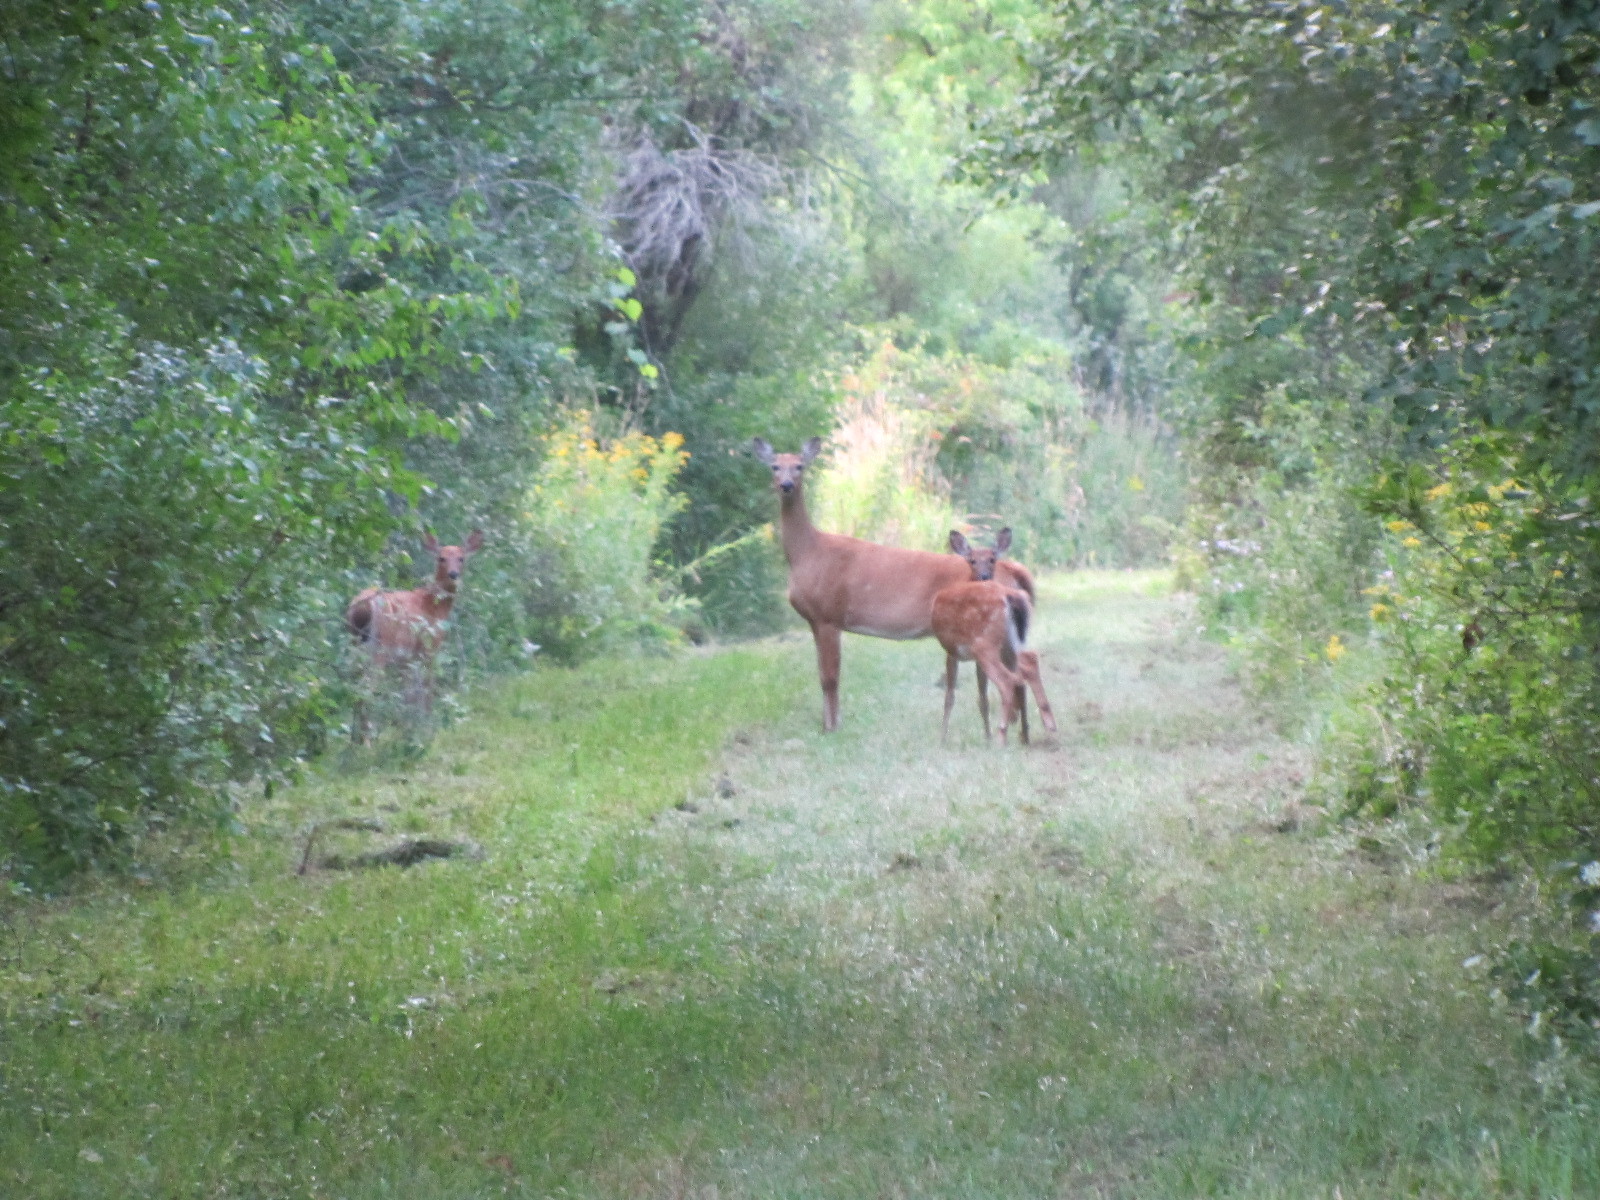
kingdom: Animalia
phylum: Chordata
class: Mammalia
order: Artiodactyla
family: Cervidae
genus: Odocoileus
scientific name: Odocoileus virginianus
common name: White-tailed deer
